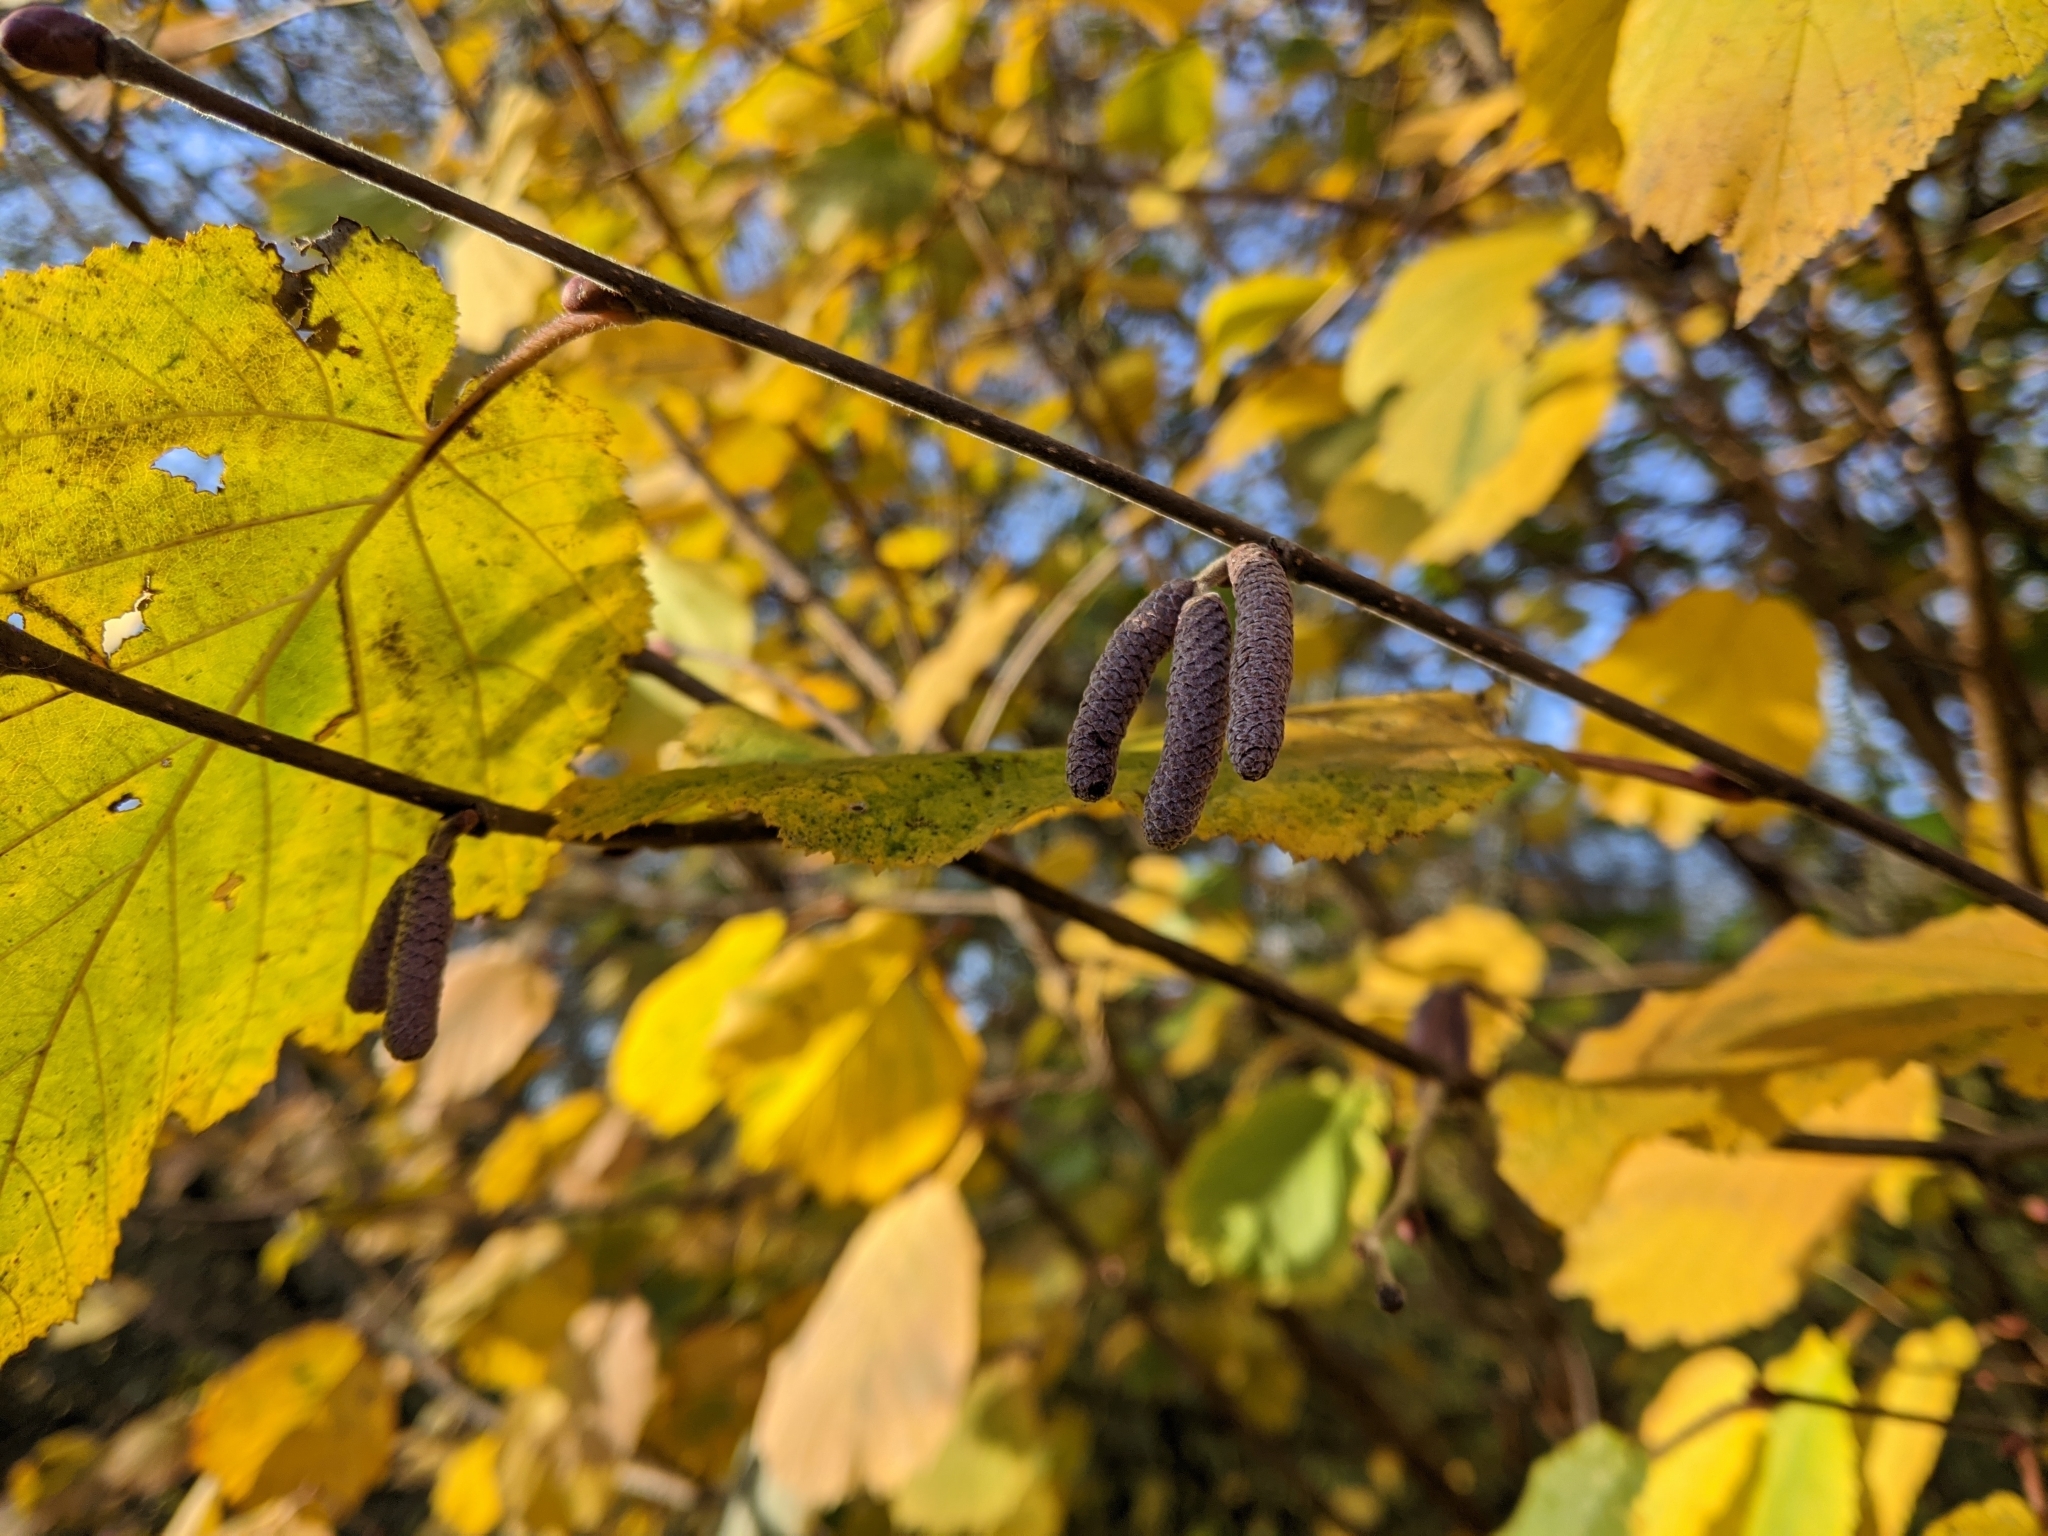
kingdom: Plantae
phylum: Tracheophyta
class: Magnoliopsida
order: Fagales
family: Betulaceae
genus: Corylus
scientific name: Corylus avellana
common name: European hazel
